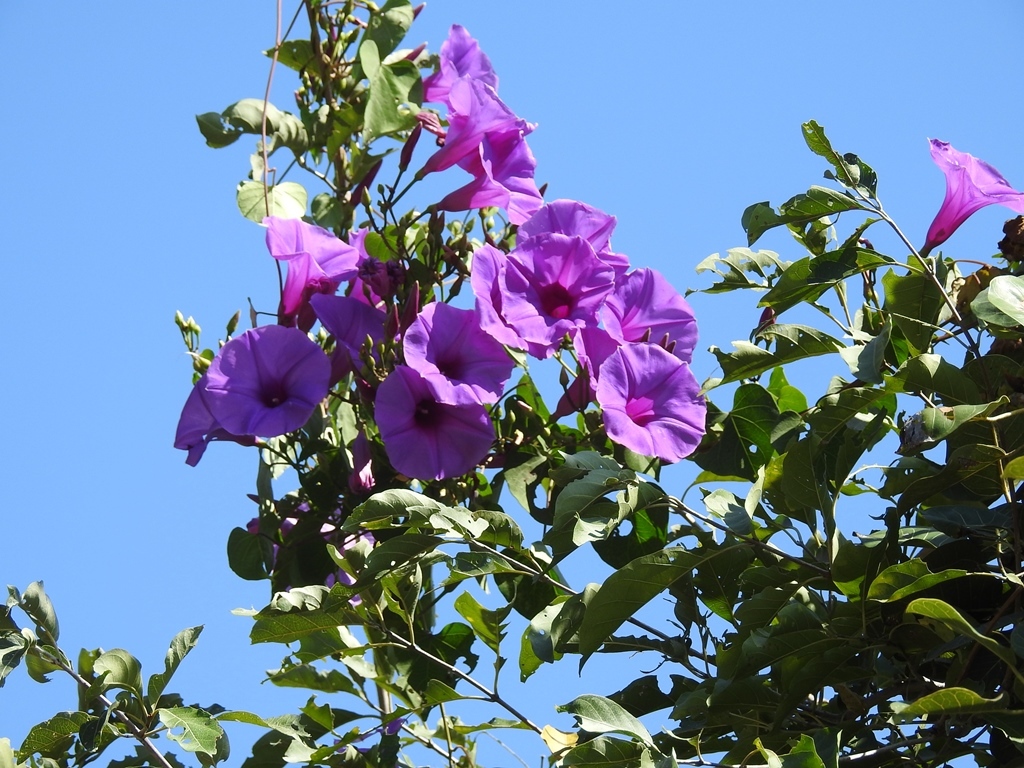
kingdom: Plantae
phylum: Tracheophyta
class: Magnoliopsida
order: Solanales
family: Convolvulaceae
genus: Ipomoea
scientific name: Ipomoea pedicellaris
